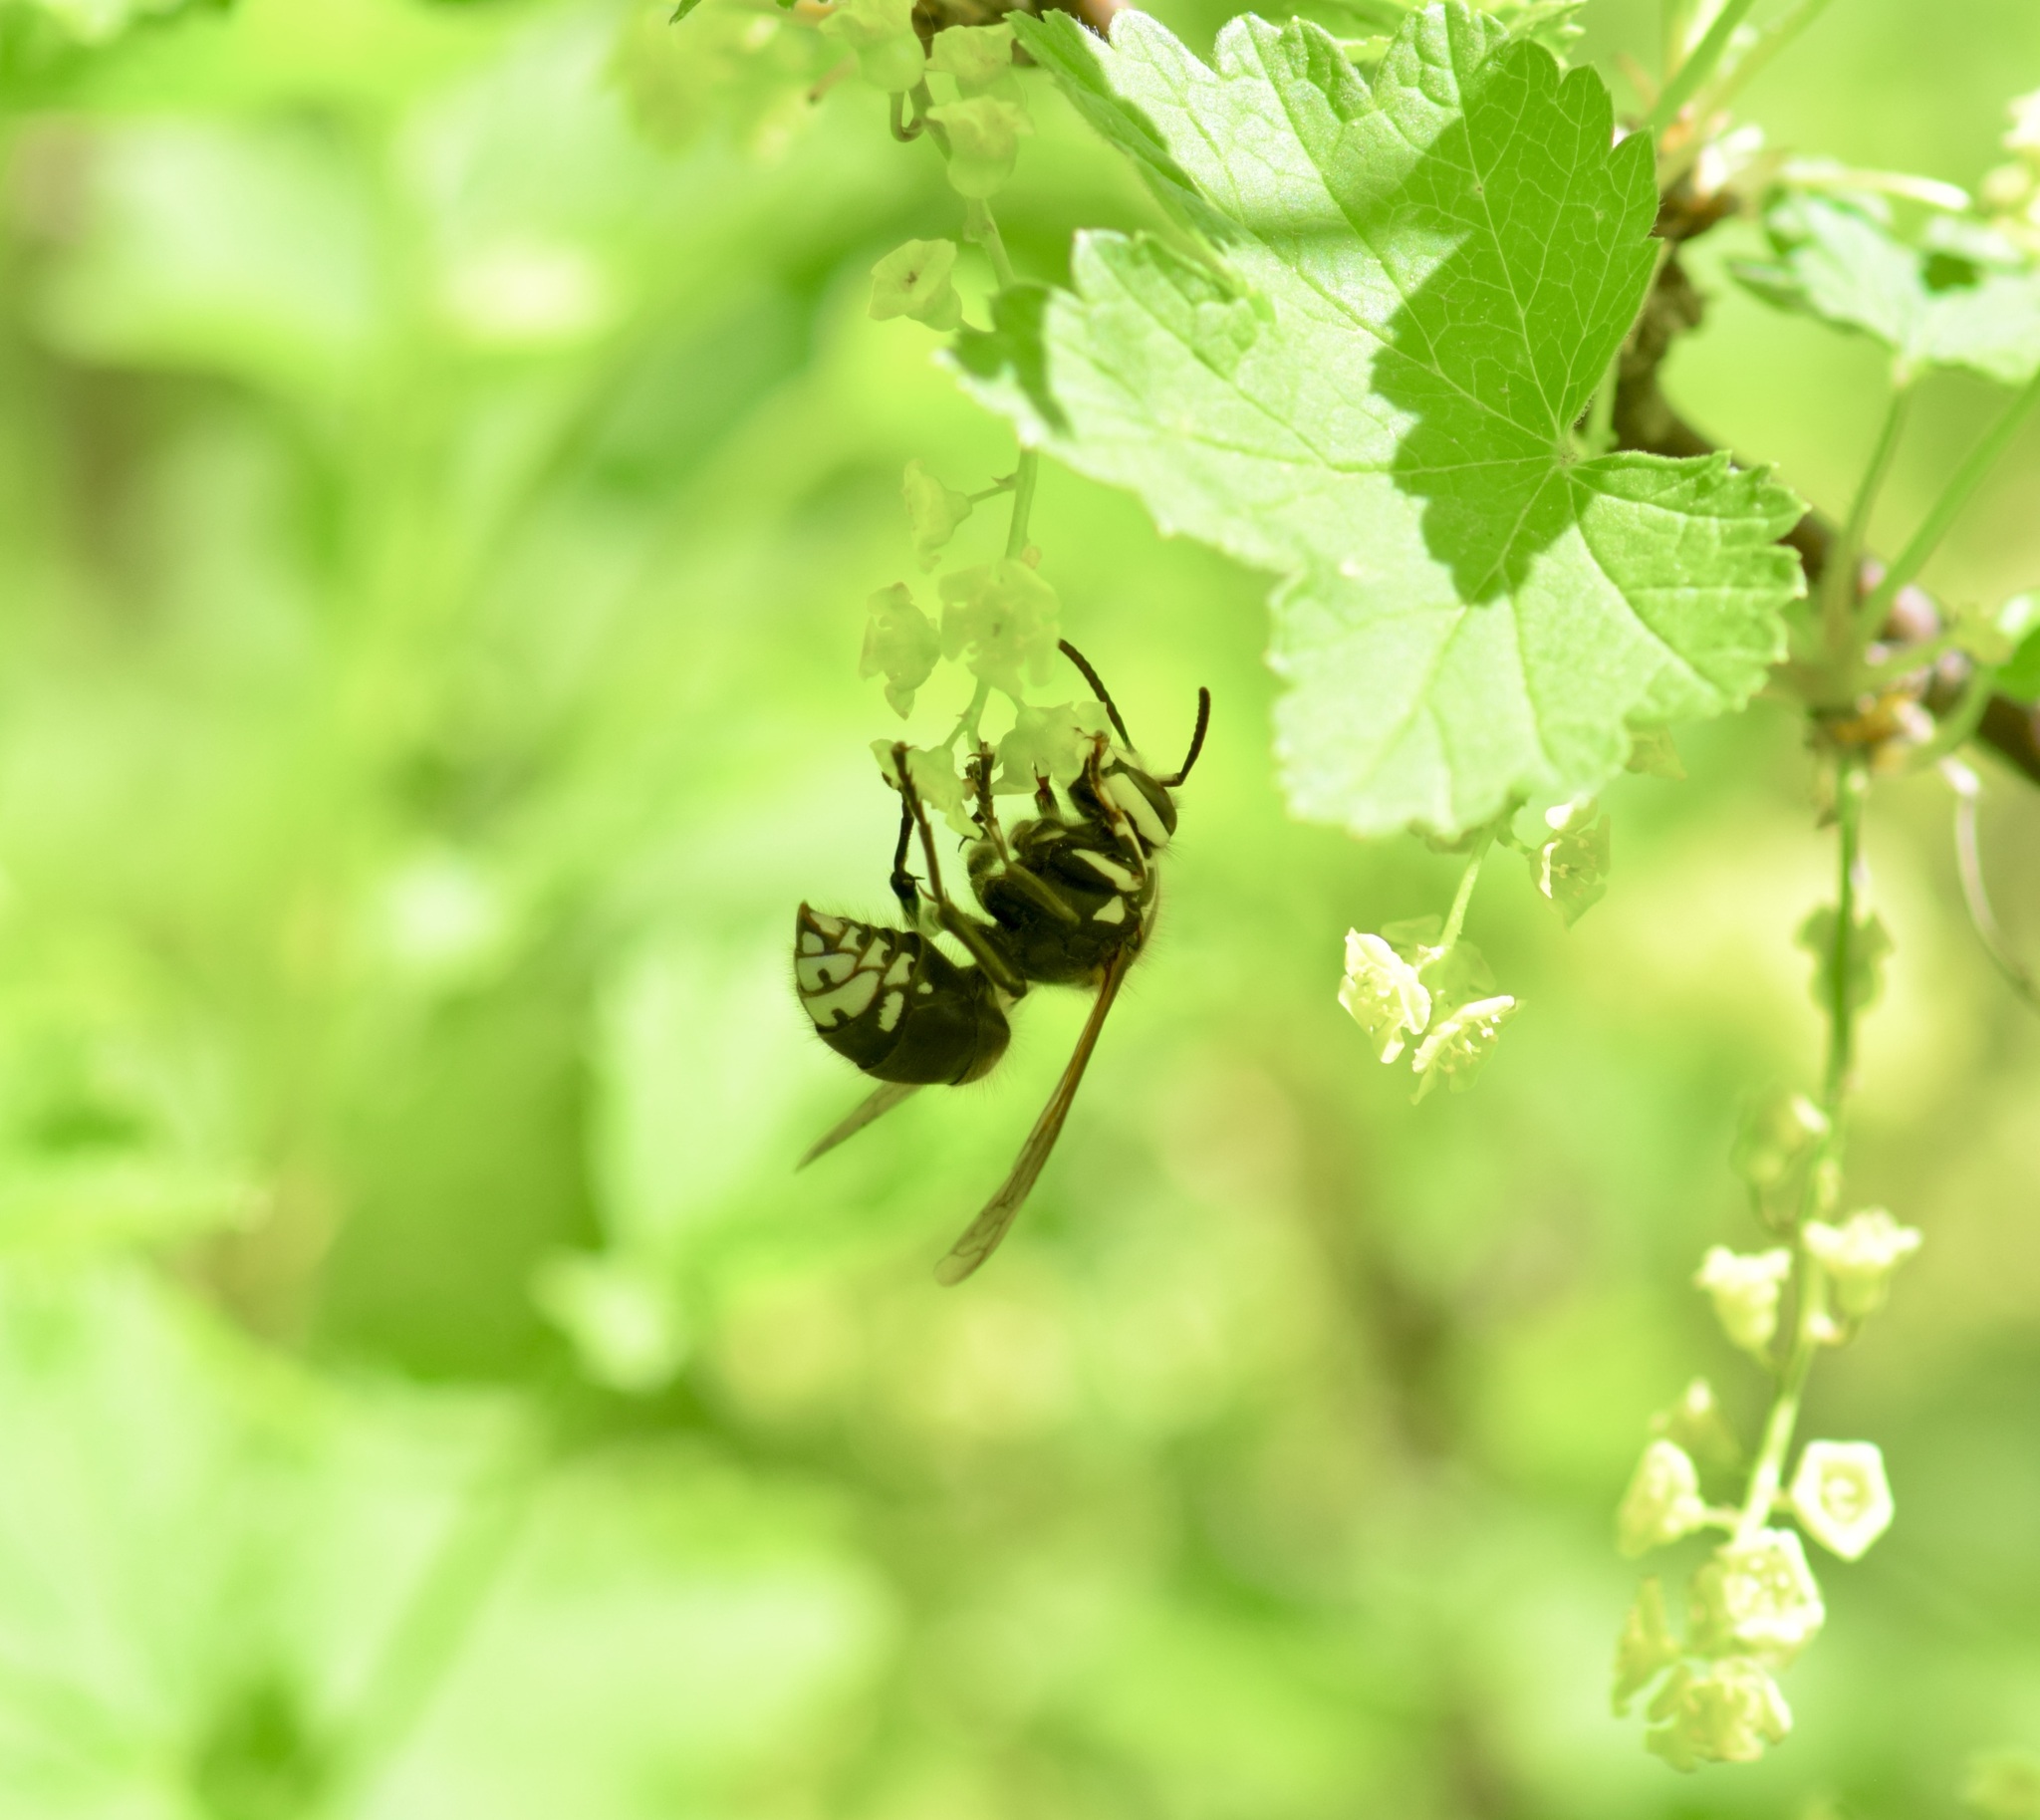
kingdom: Animalia
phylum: Arthropoda
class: Insecta
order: Hymenoptera
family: Vespidae
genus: Dolichovespula
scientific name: Dolichovespula maculata
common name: Bald-faced hornet
